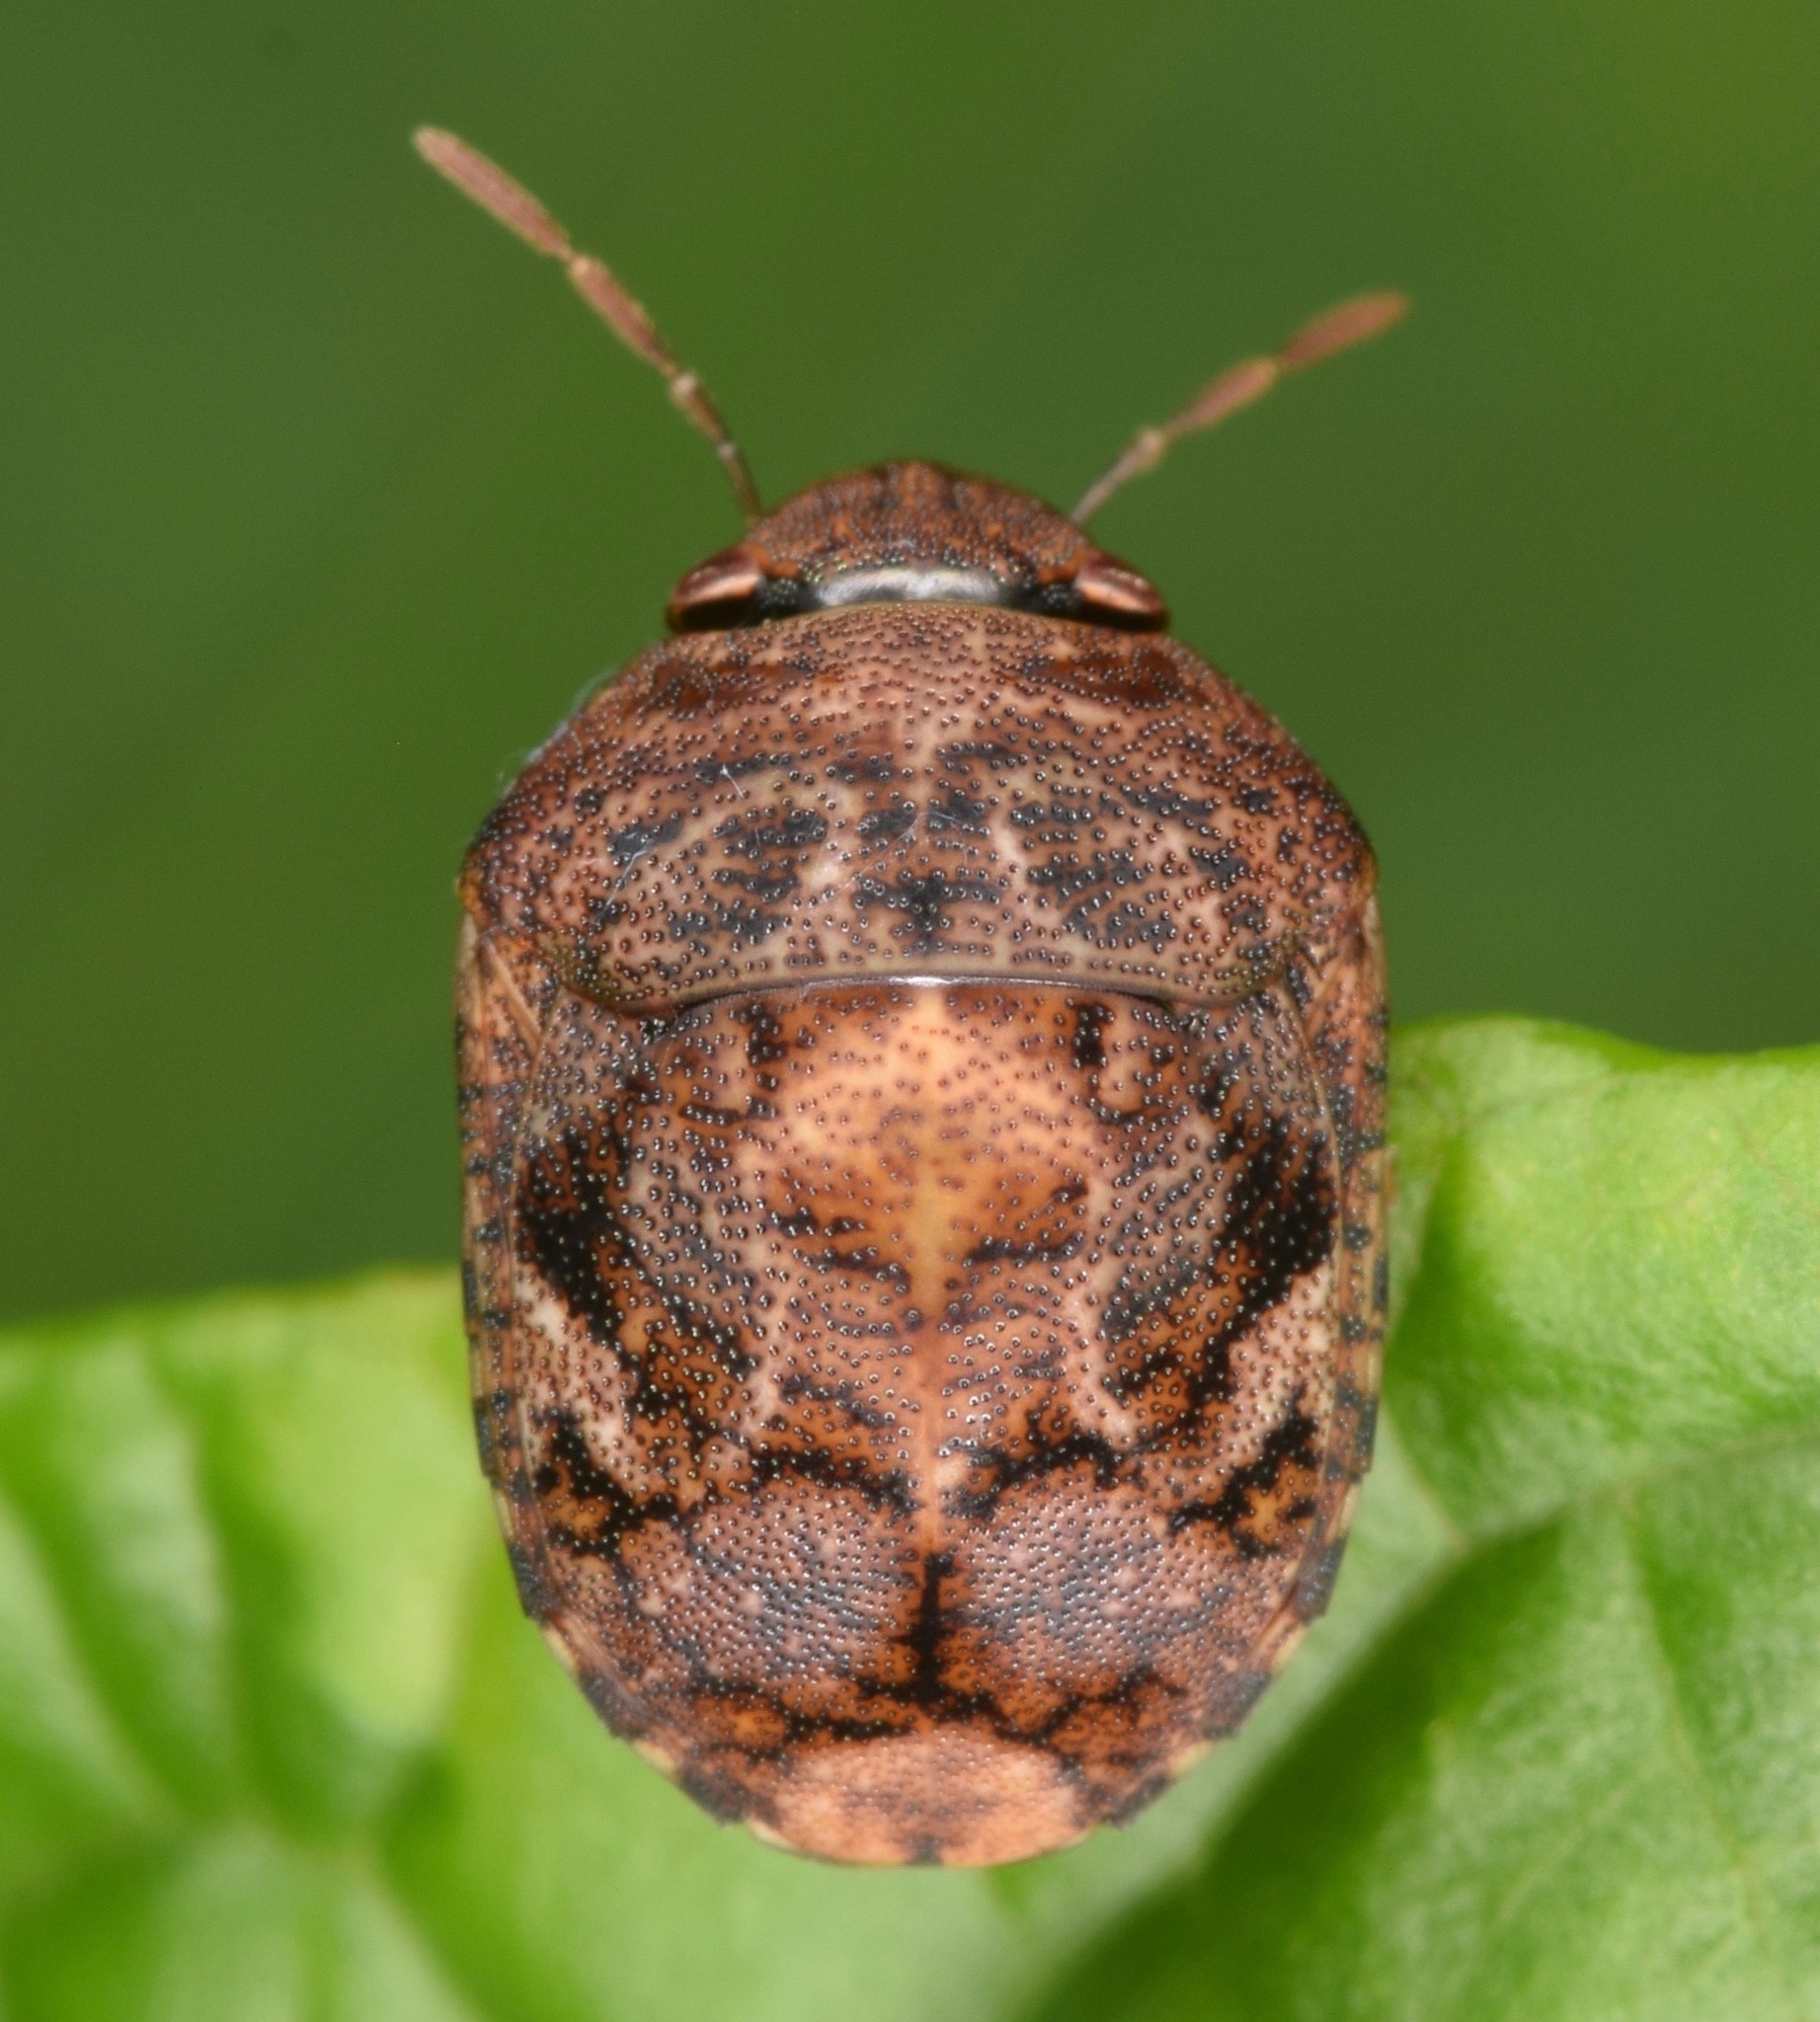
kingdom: Animalia
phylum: Arthropoda
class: Insecta
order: Hemiptera
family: Scutelleridae
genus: Stethaulax
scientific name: Stethaulax marmoratus
